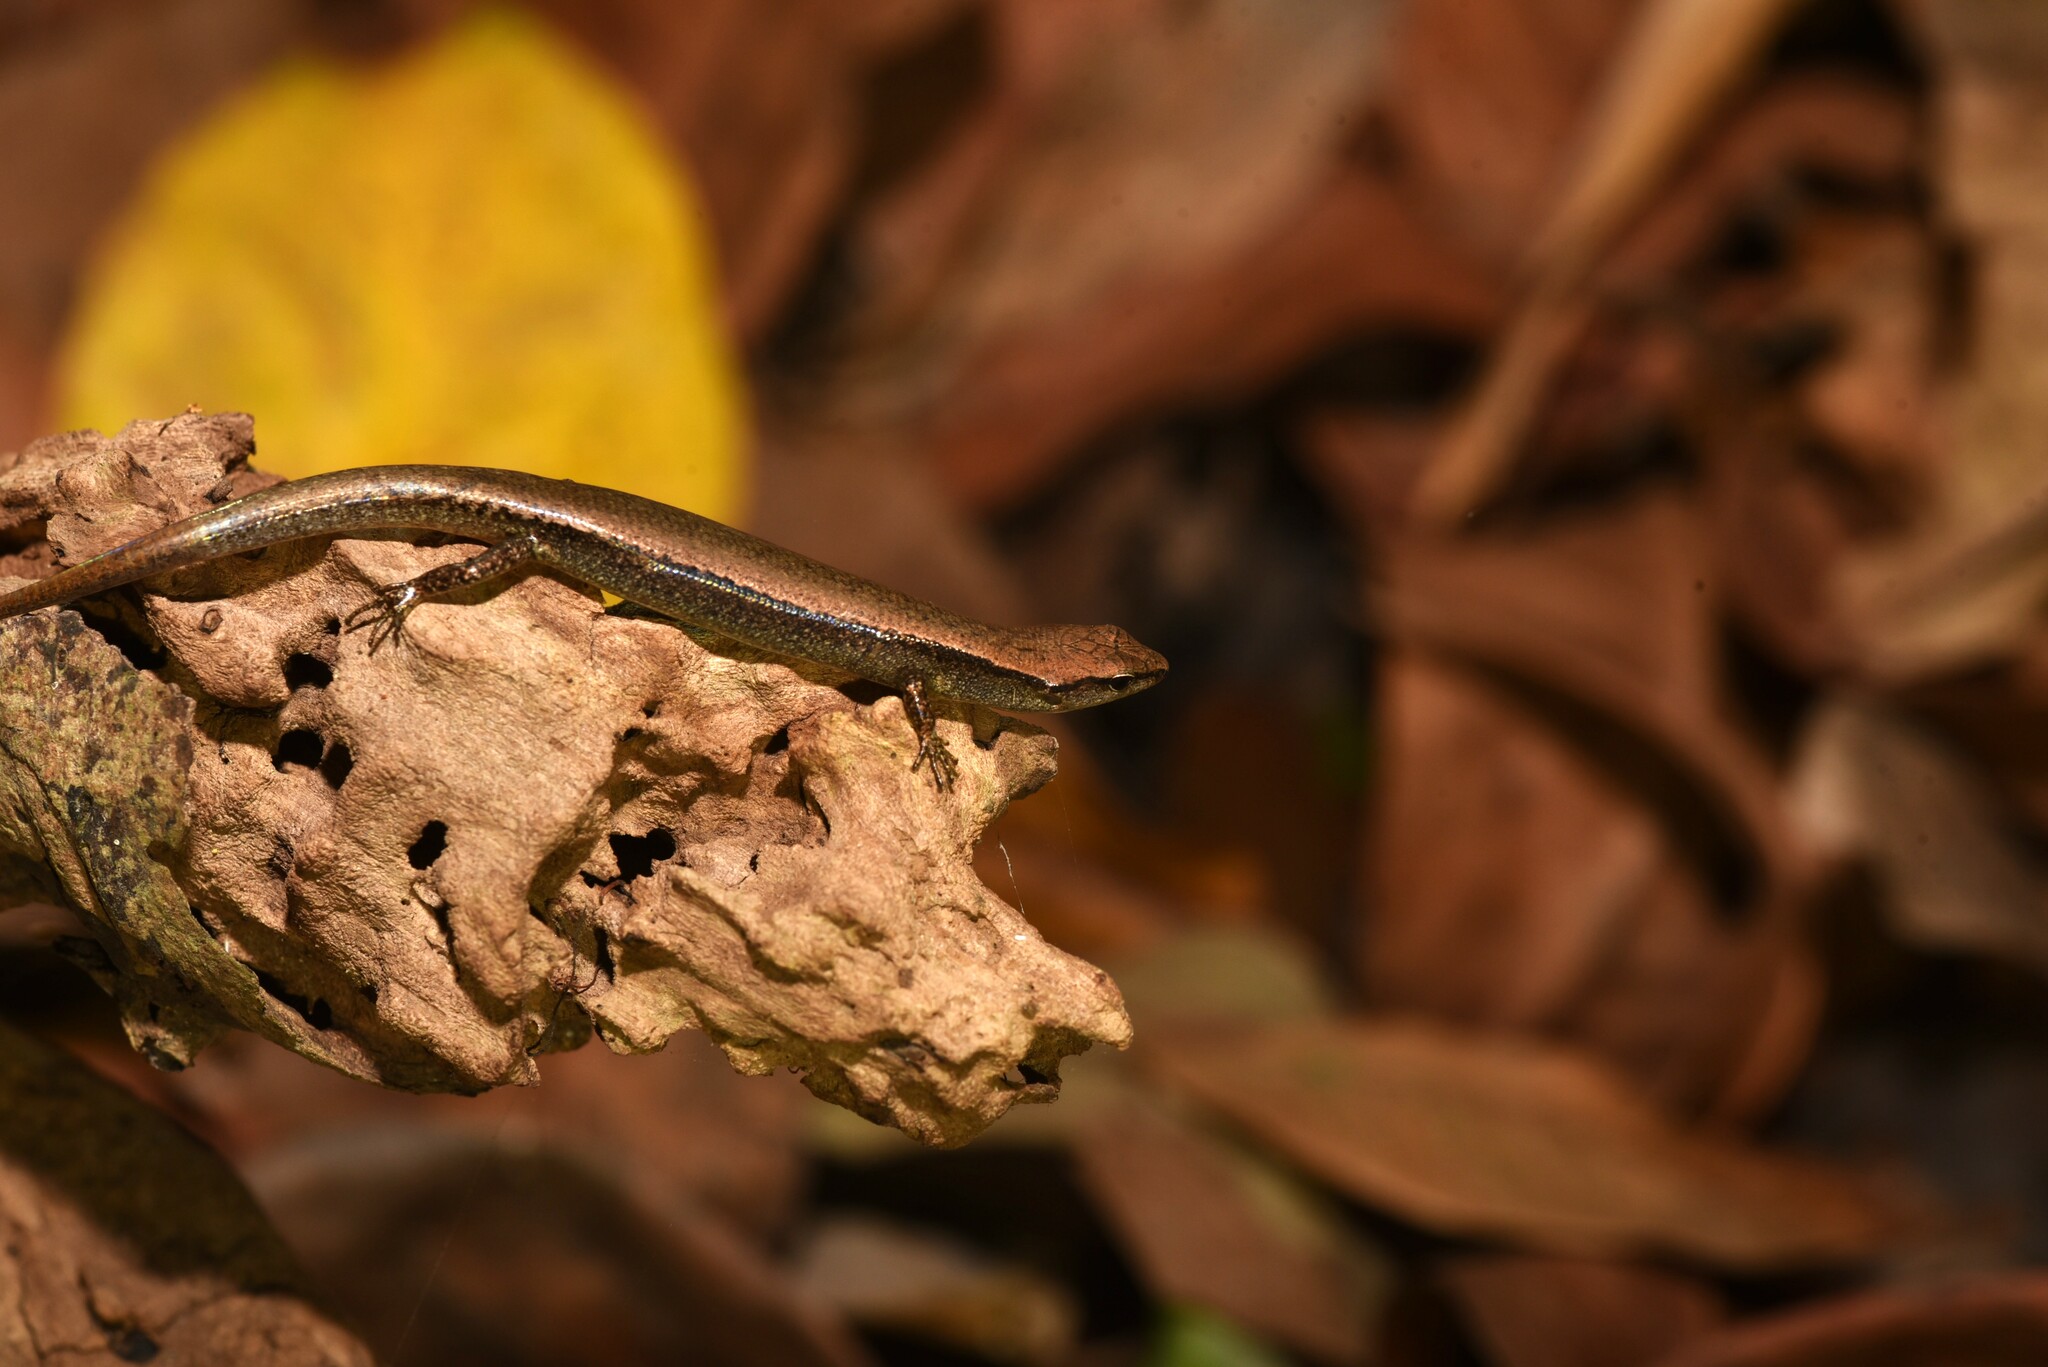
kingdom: Animalia
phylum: Chordata
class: Squamata
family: Scincidae
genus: Scincella
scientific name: Scincella formosensis
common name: Van denburgh's ground skink
